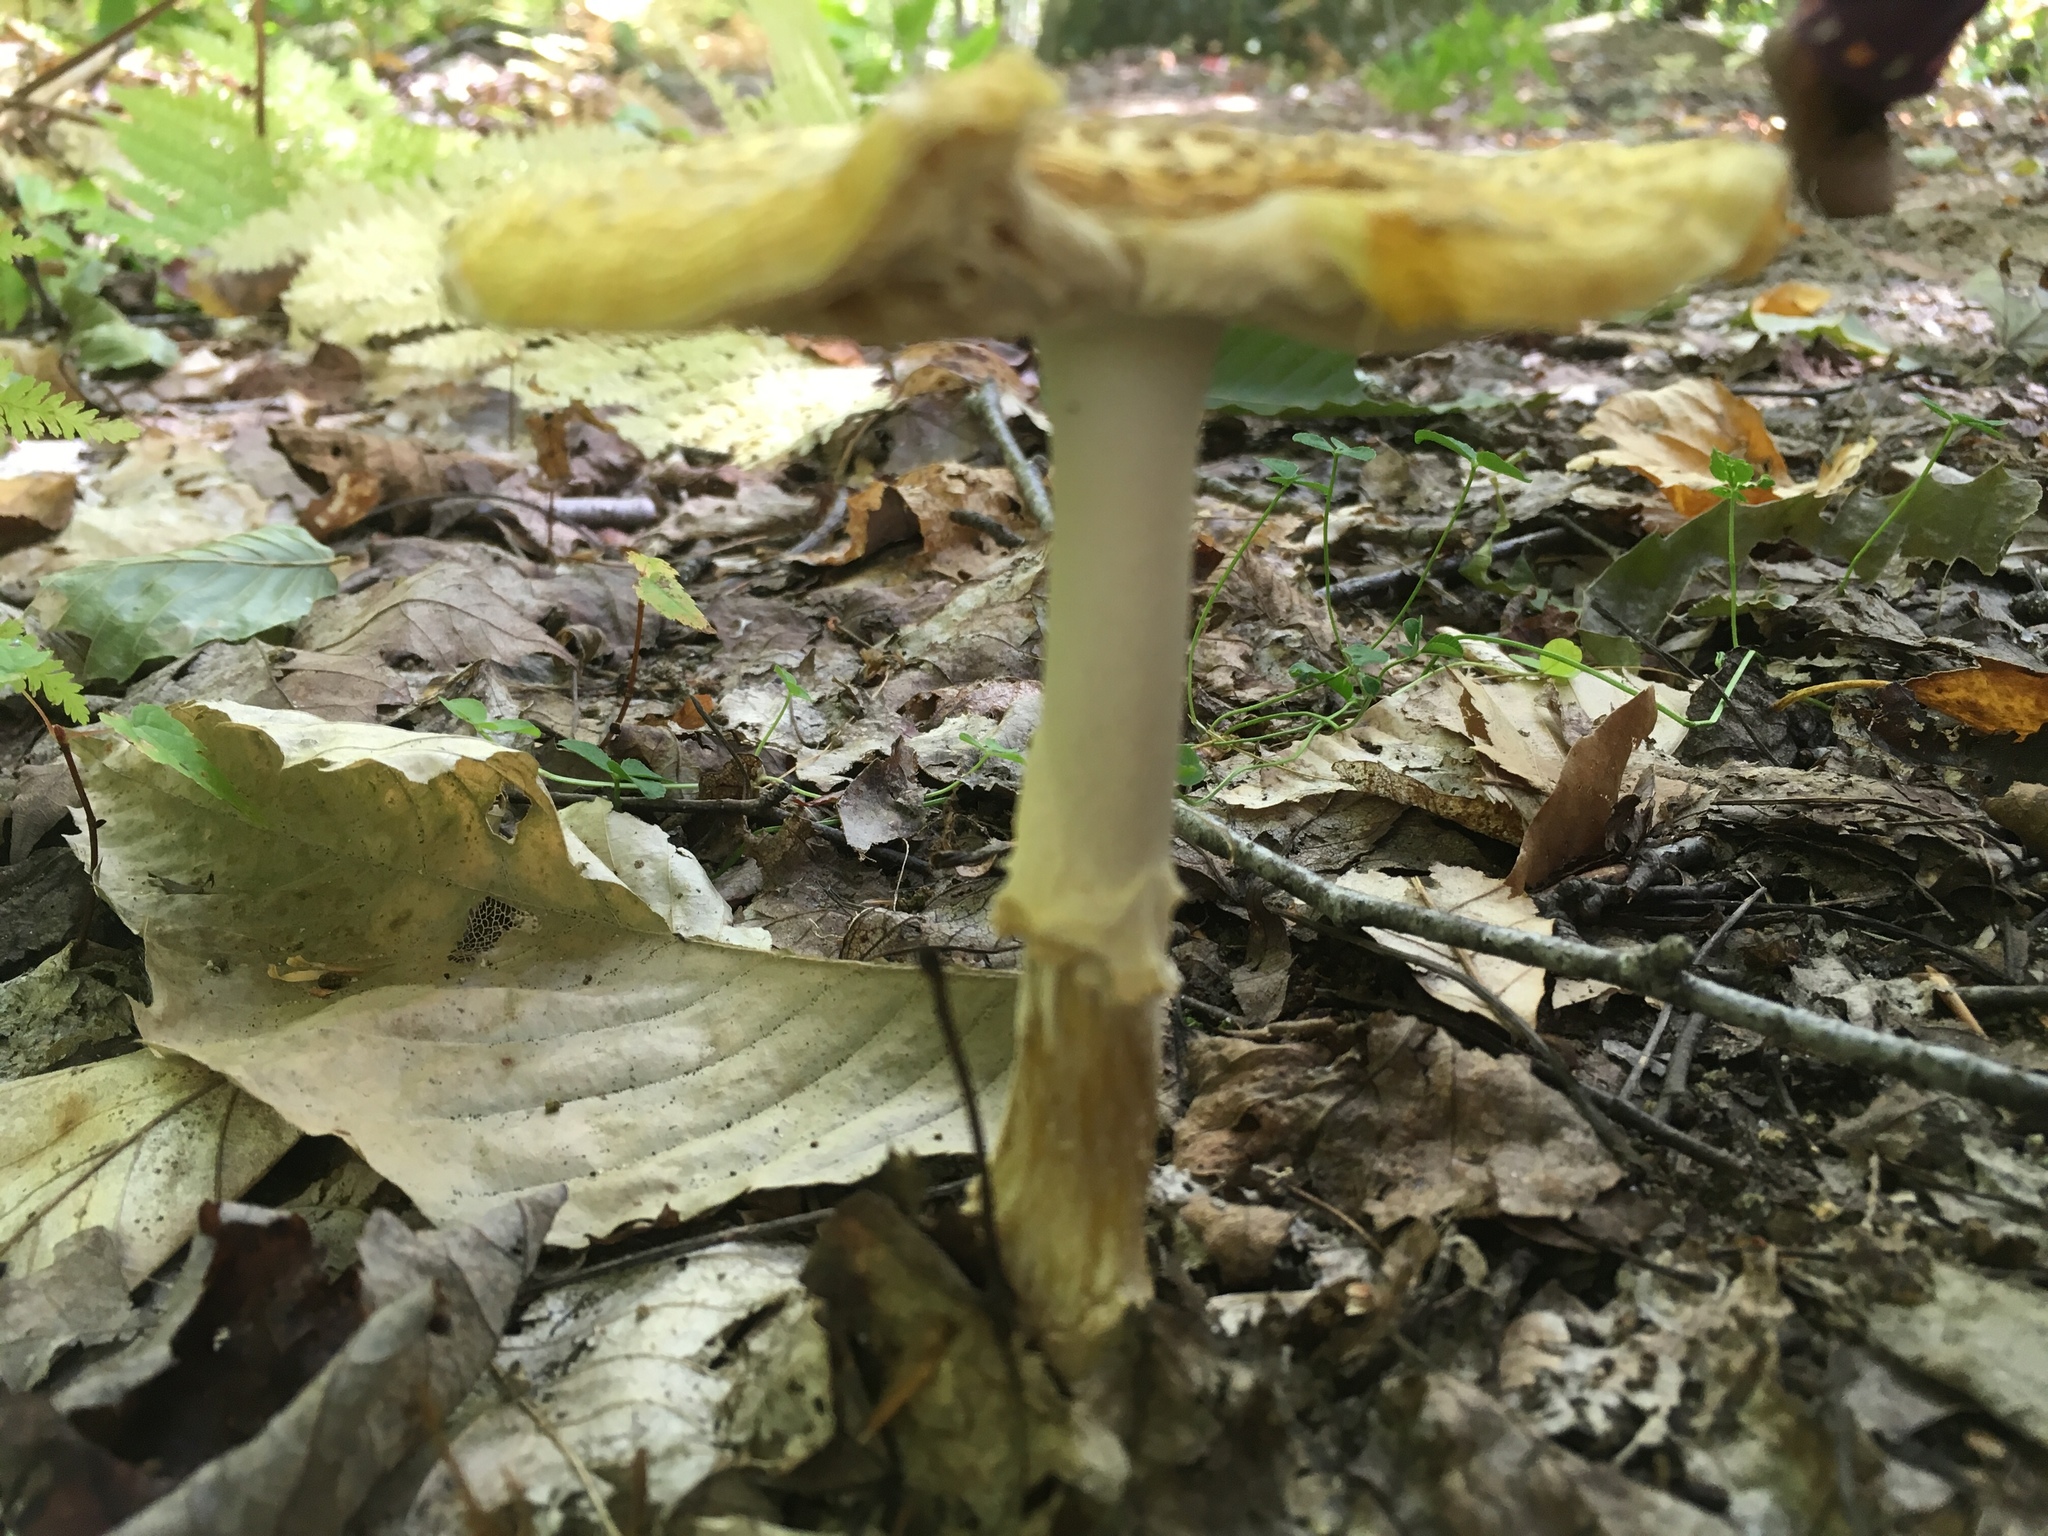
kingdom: Fungi
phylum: Basidiomycota
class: Agaricomycetes
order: Agaricales
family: Amanitaceae
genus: Amanita
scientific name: Amanita muscaria
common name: Fly agaric
